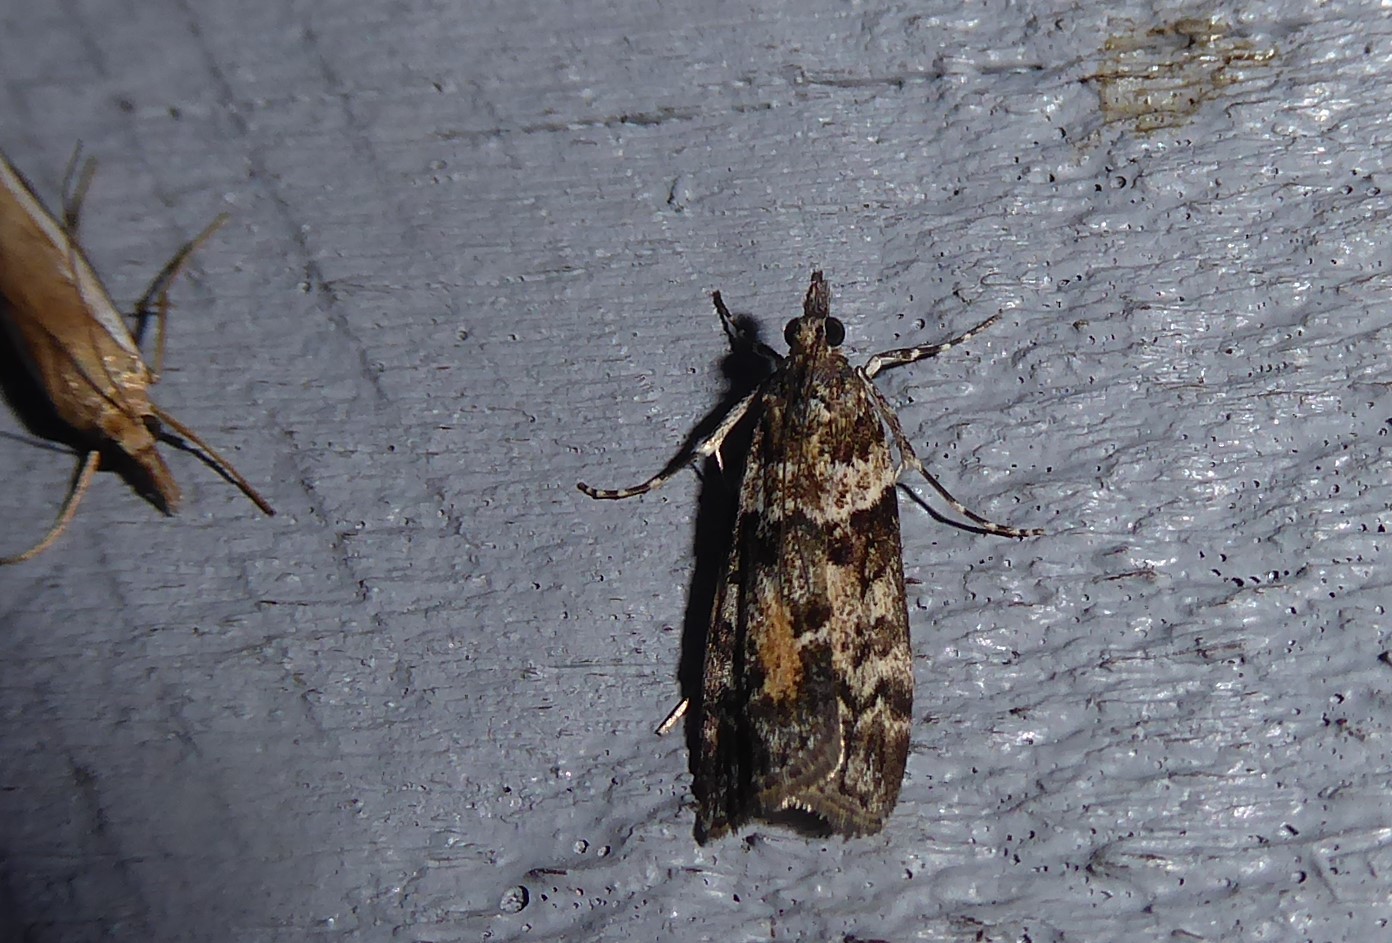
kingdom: Animalia
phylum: Arthropoda
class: Insecta
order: Lepidoptera
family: Crambidae
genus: Eudonia
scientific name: Eudonia submarginalis
